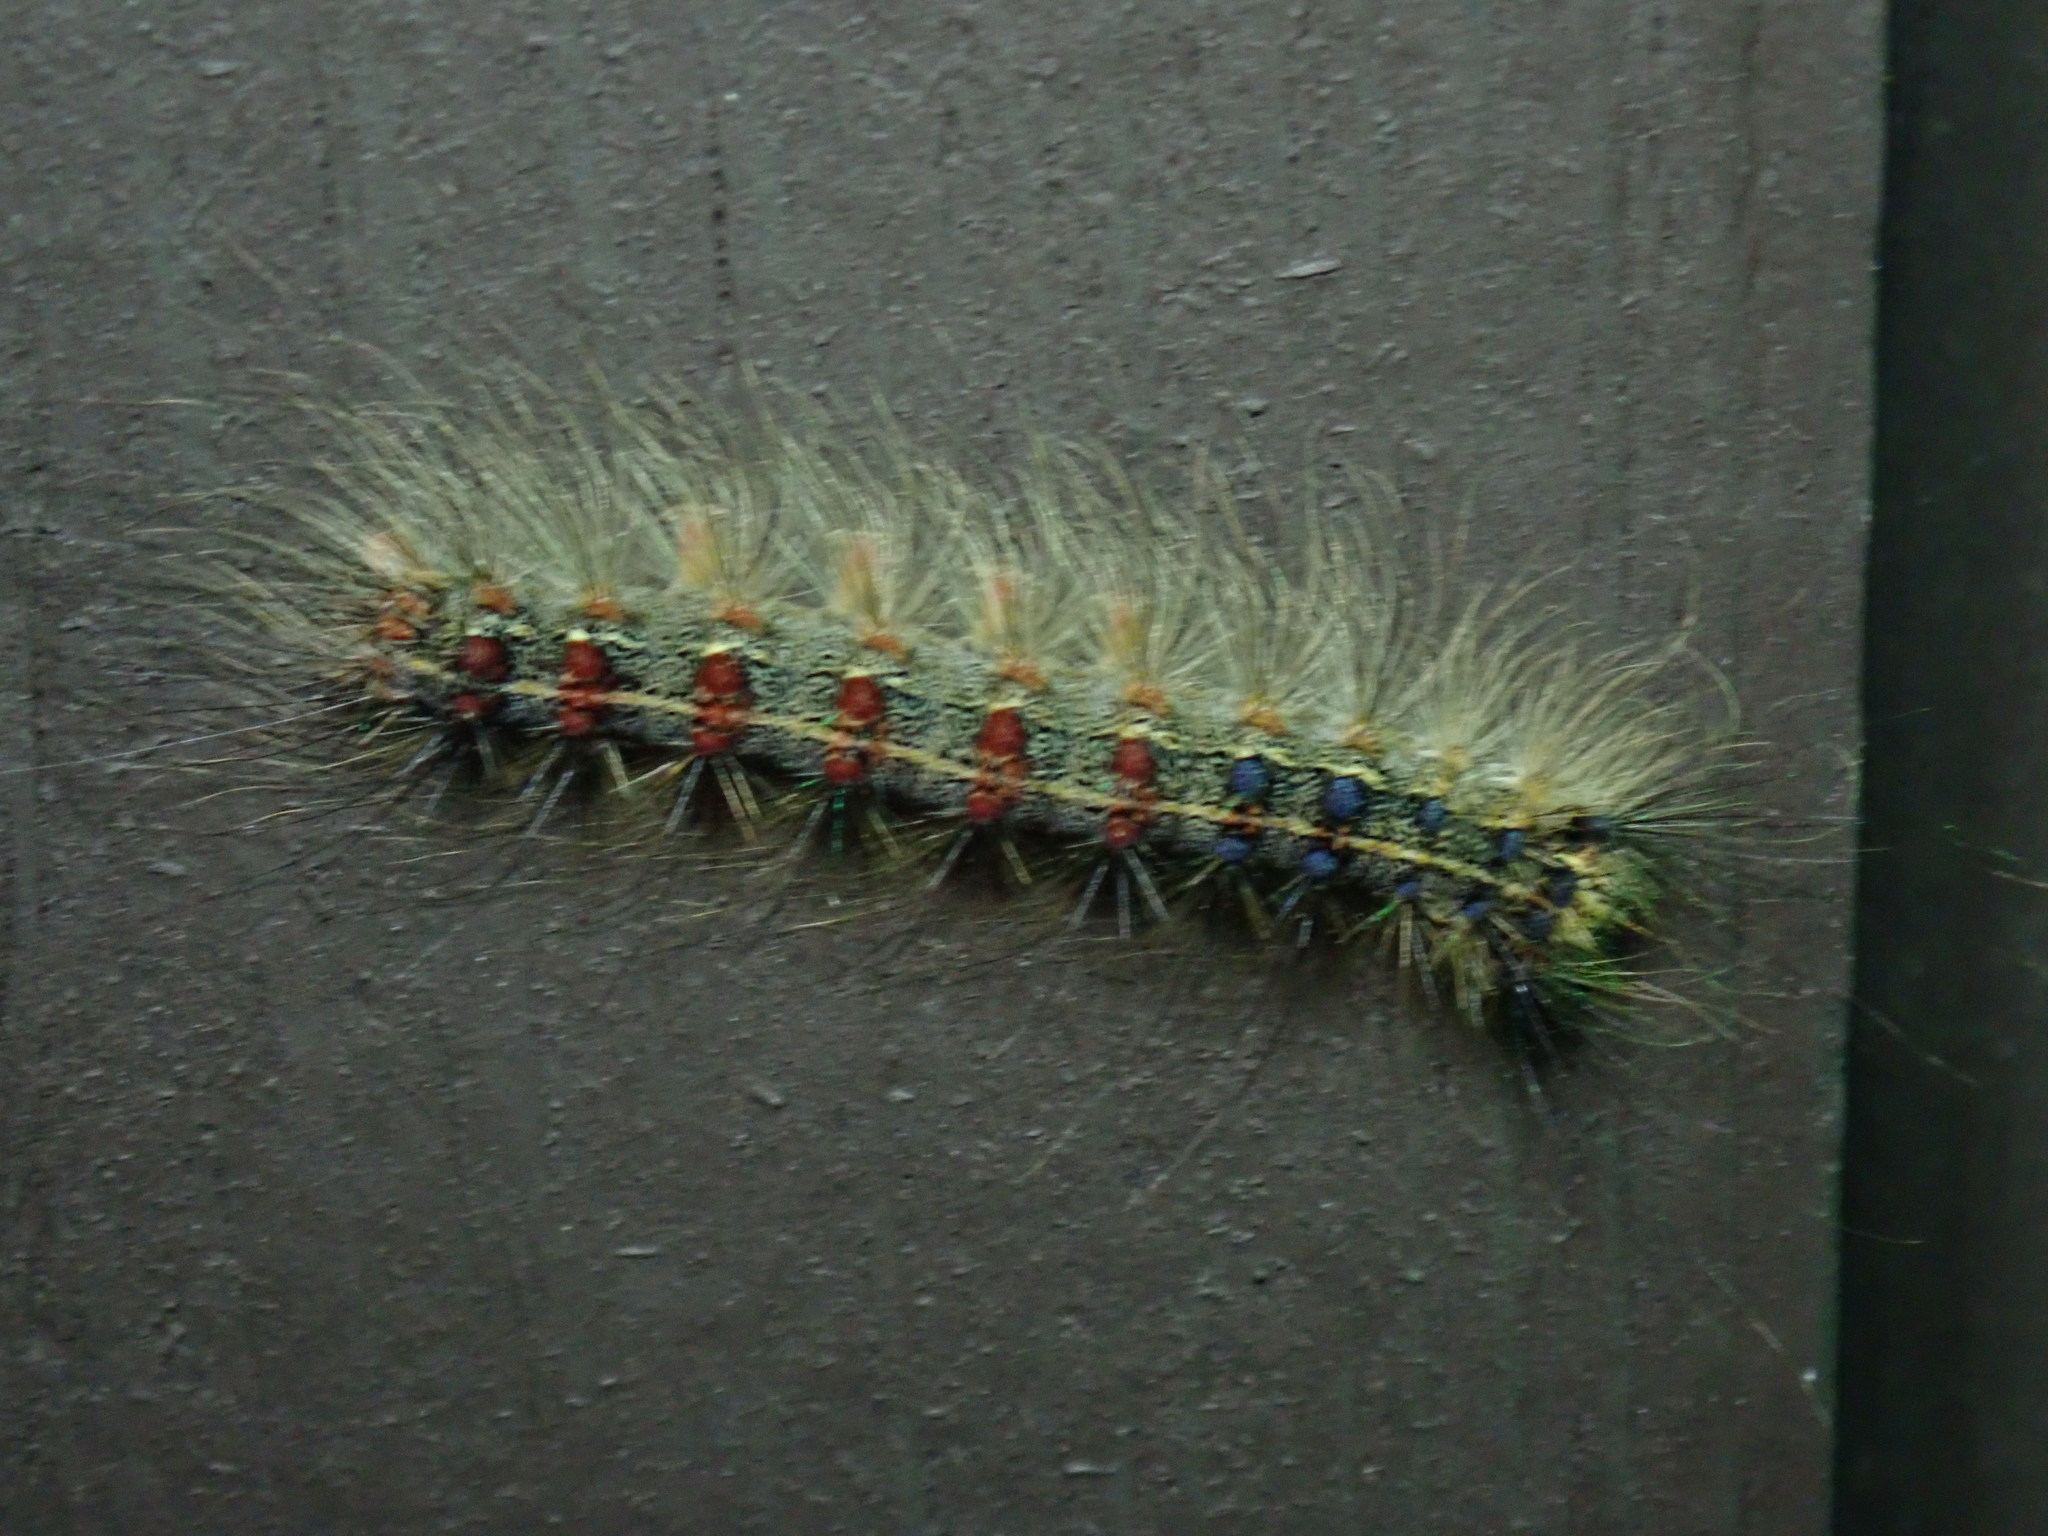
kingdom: Animalia
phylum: Arthropoda
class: Insecta
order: Lepidoptera
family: Erebidae
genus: Lymantria
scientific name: Lymantria dispar
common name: Gypsy moth
